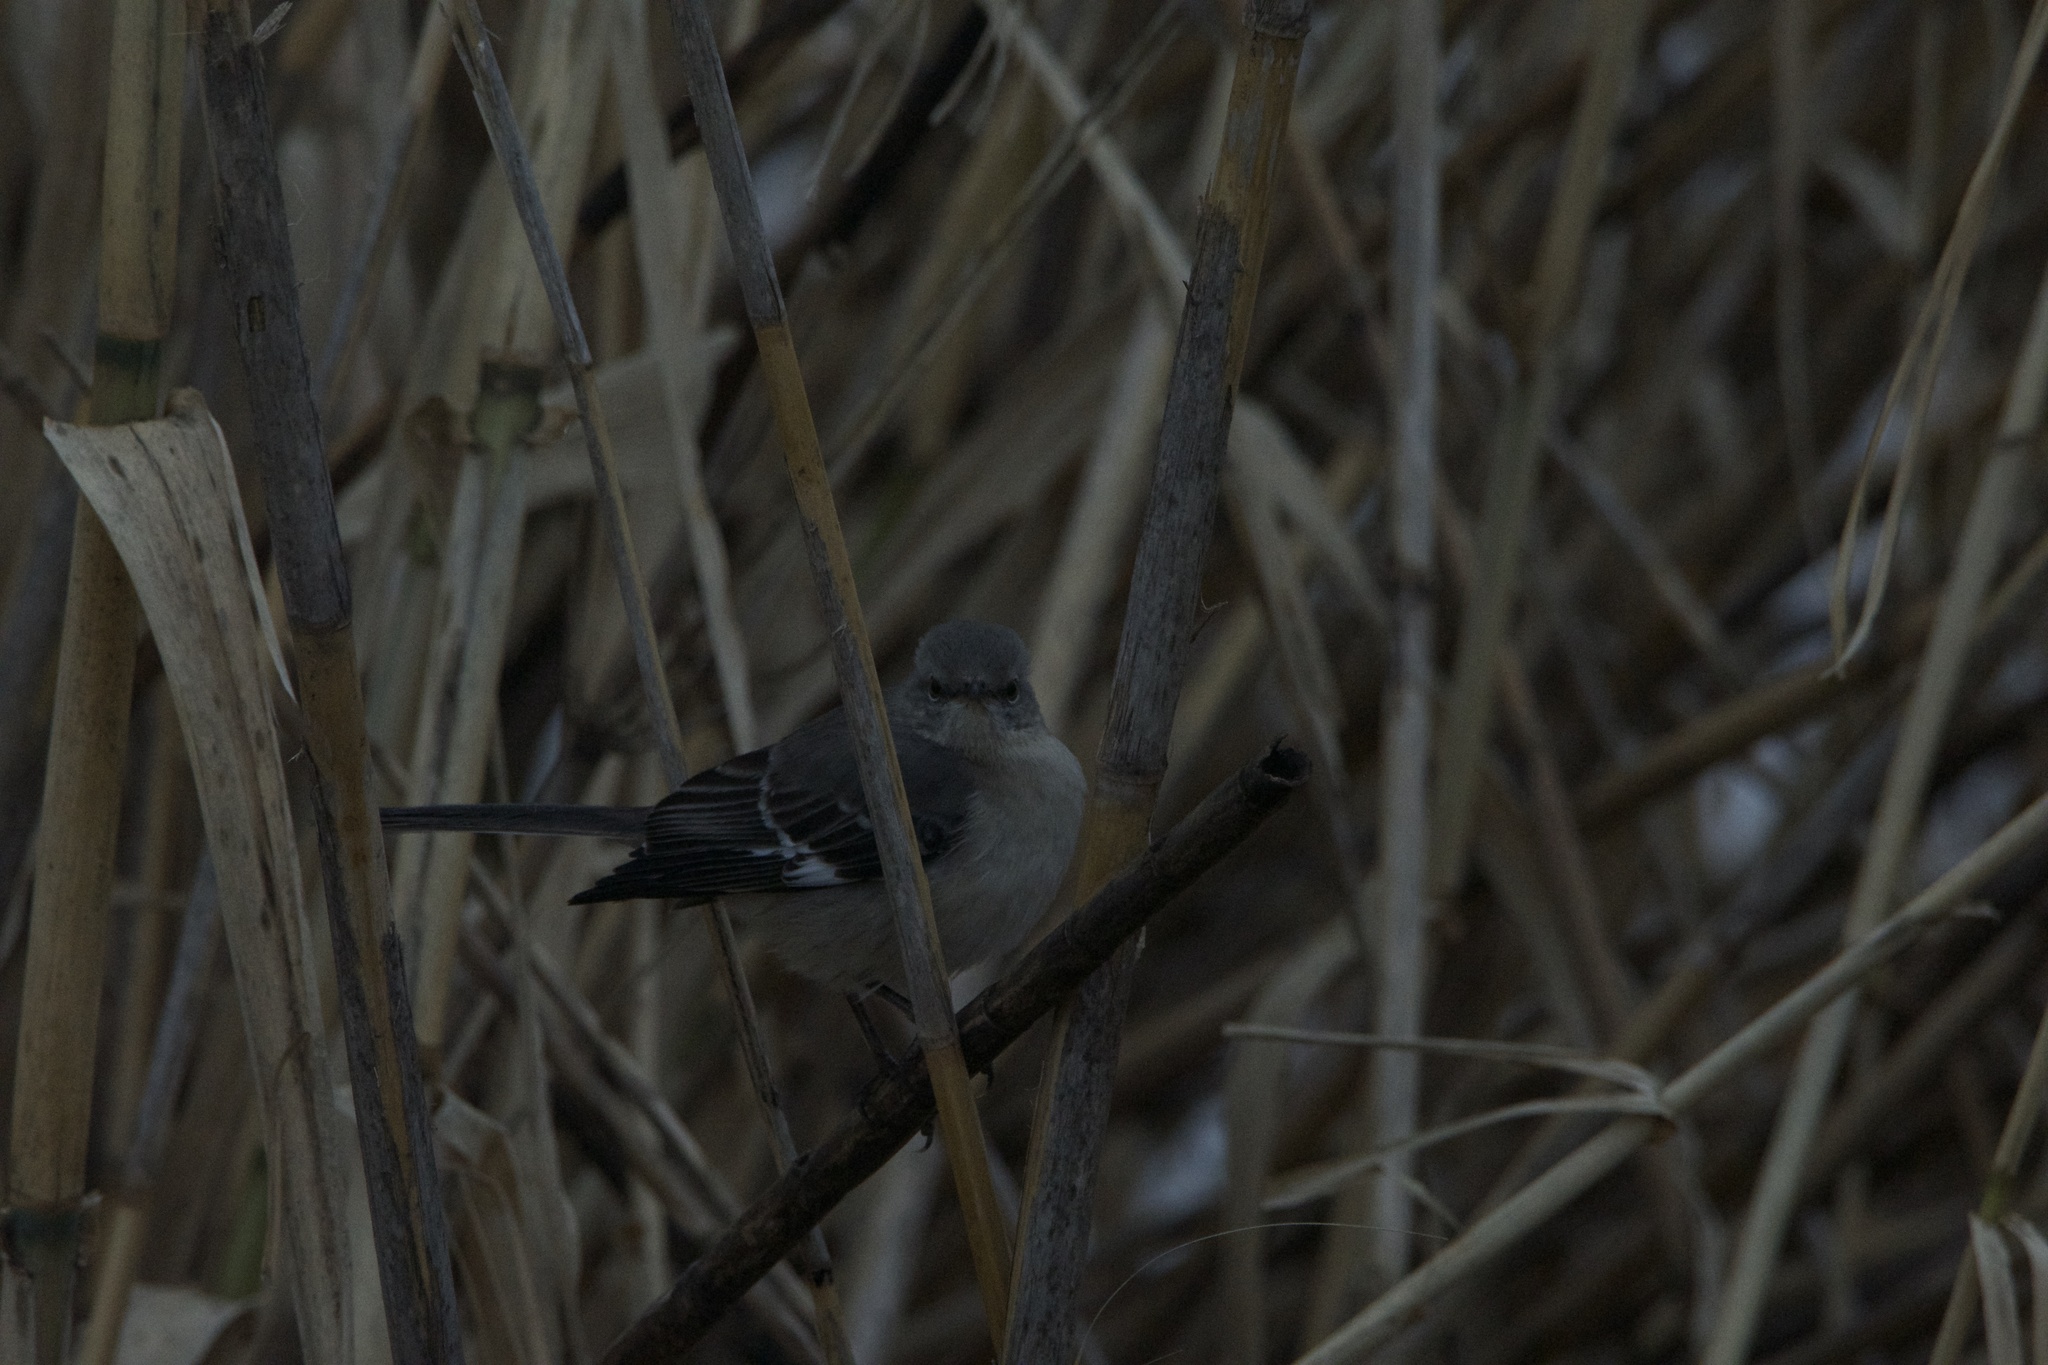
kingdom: Animalia
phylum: Chordata
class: Aves
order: Passeriformes
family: Mimidae
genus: Mimus
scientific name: Mimus polyglottos
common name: Northern mockingbird
